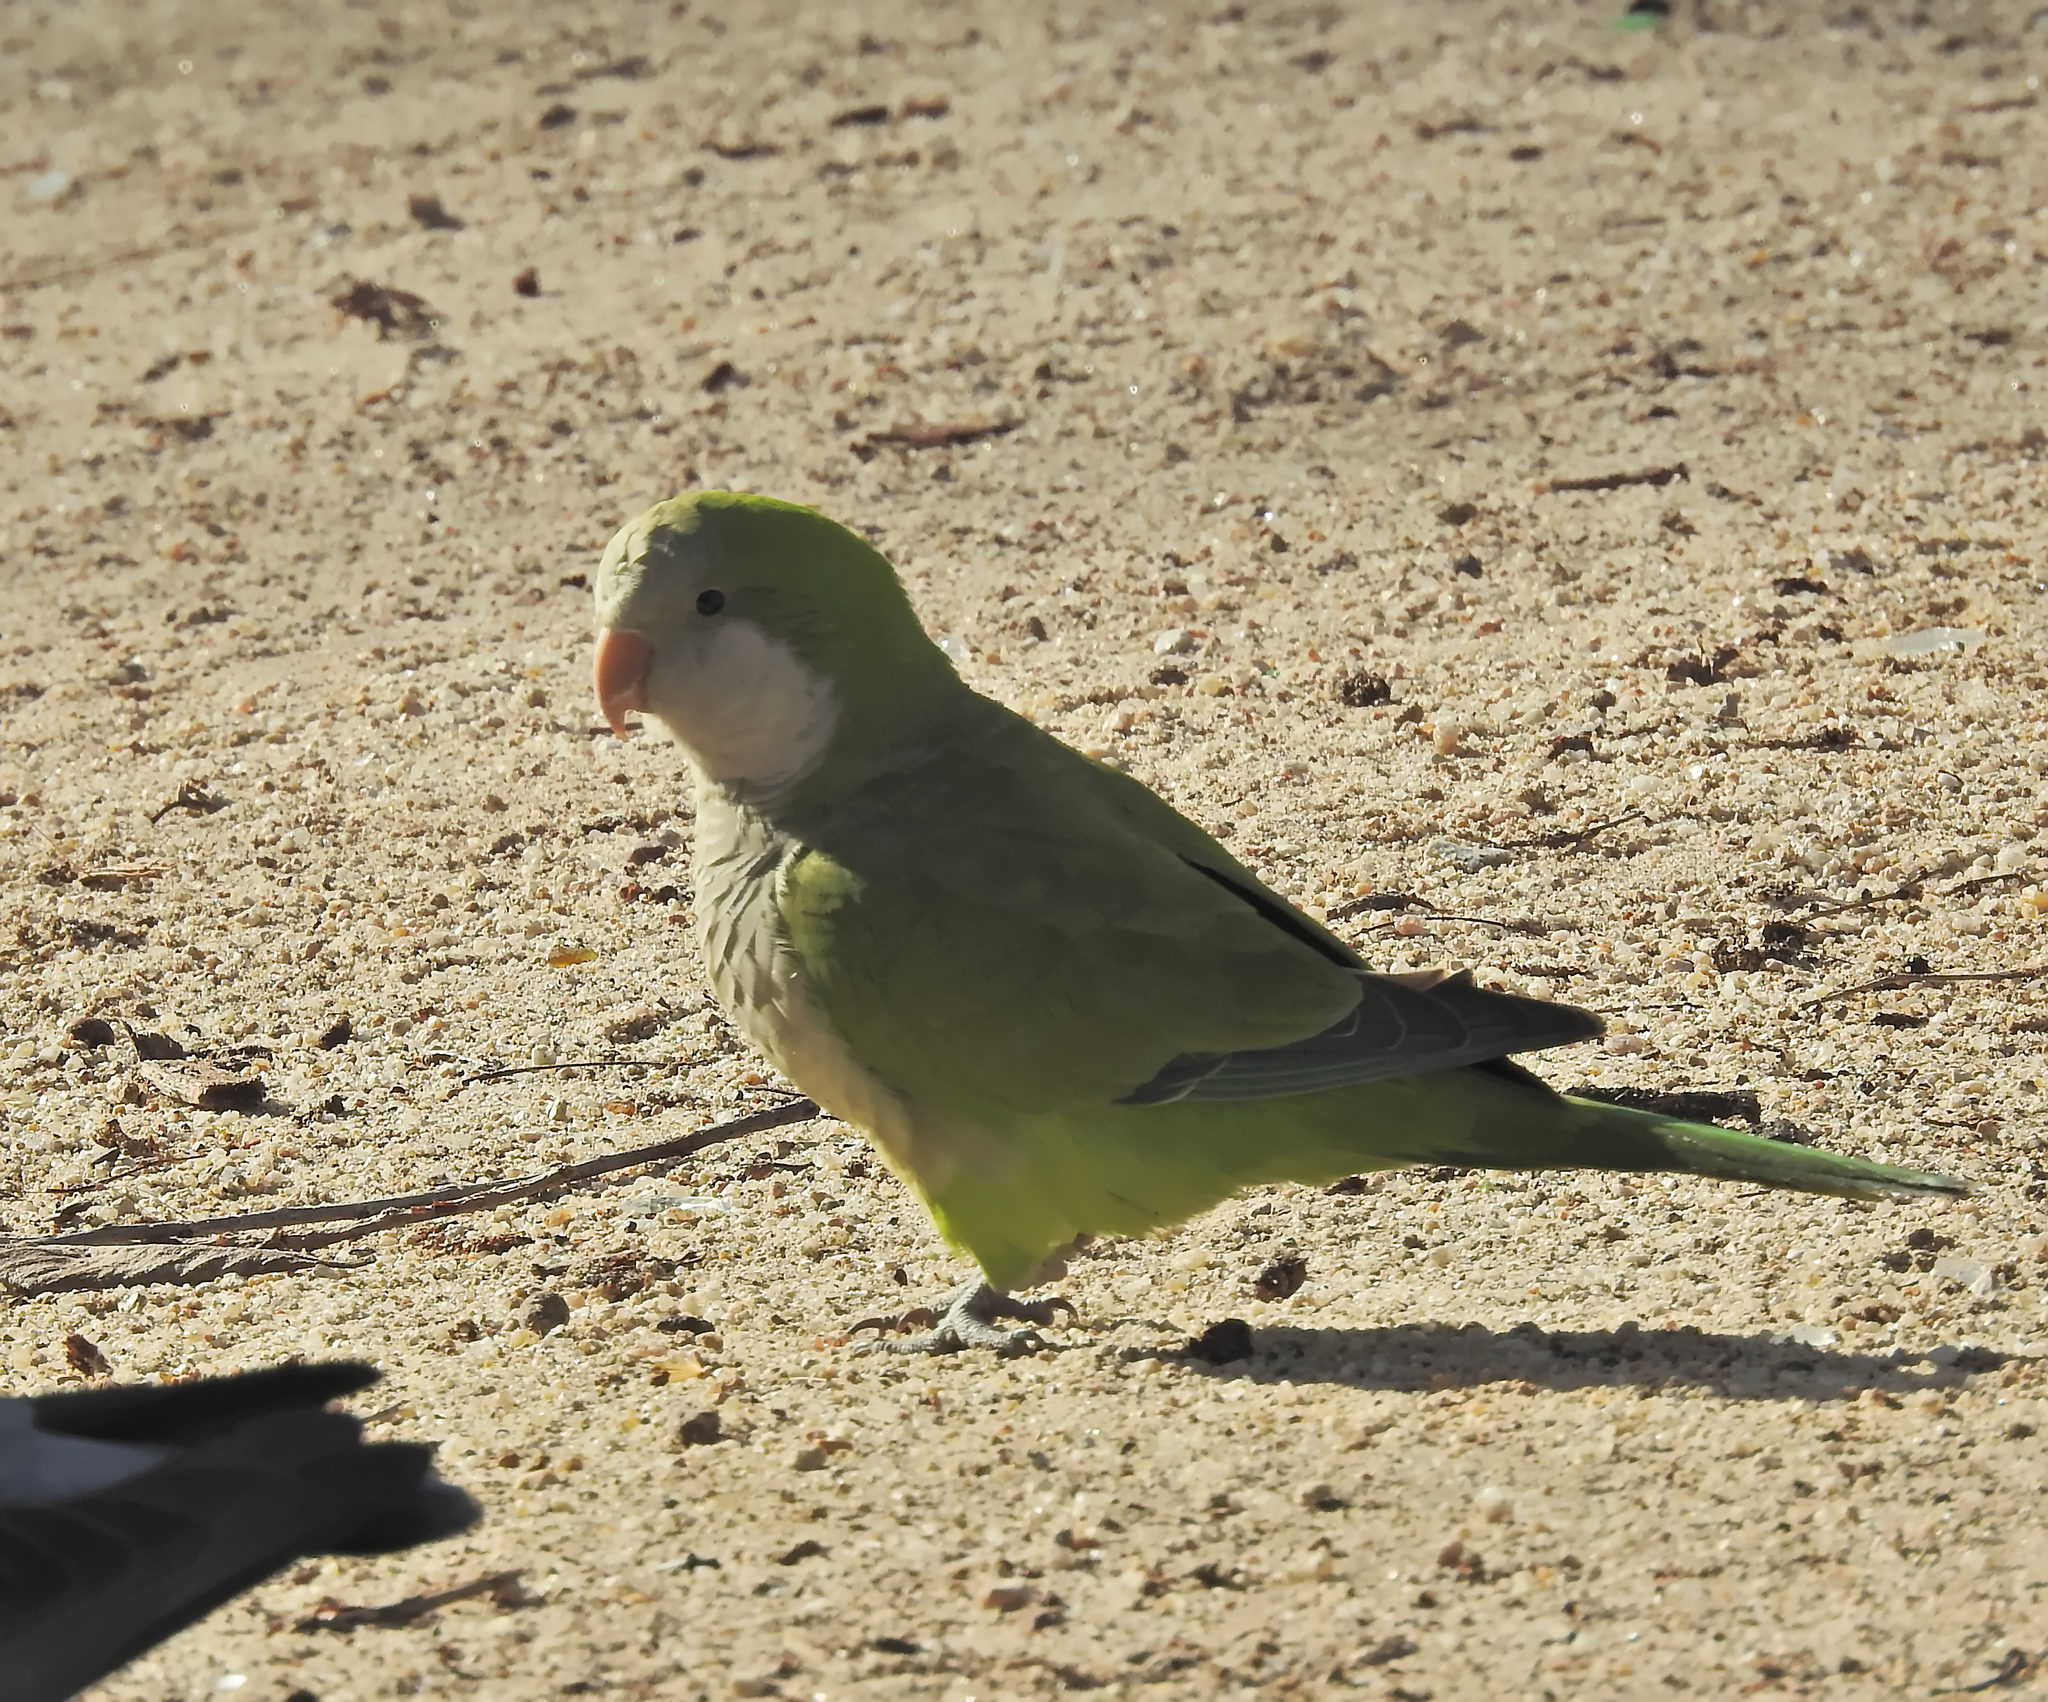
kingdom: Animalia
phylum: Chordata
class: Aves
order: Psittaciformes
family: Psittacidae
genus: Myiopsitta
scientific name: Myiopsitta monachus
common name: Monk parakeet
